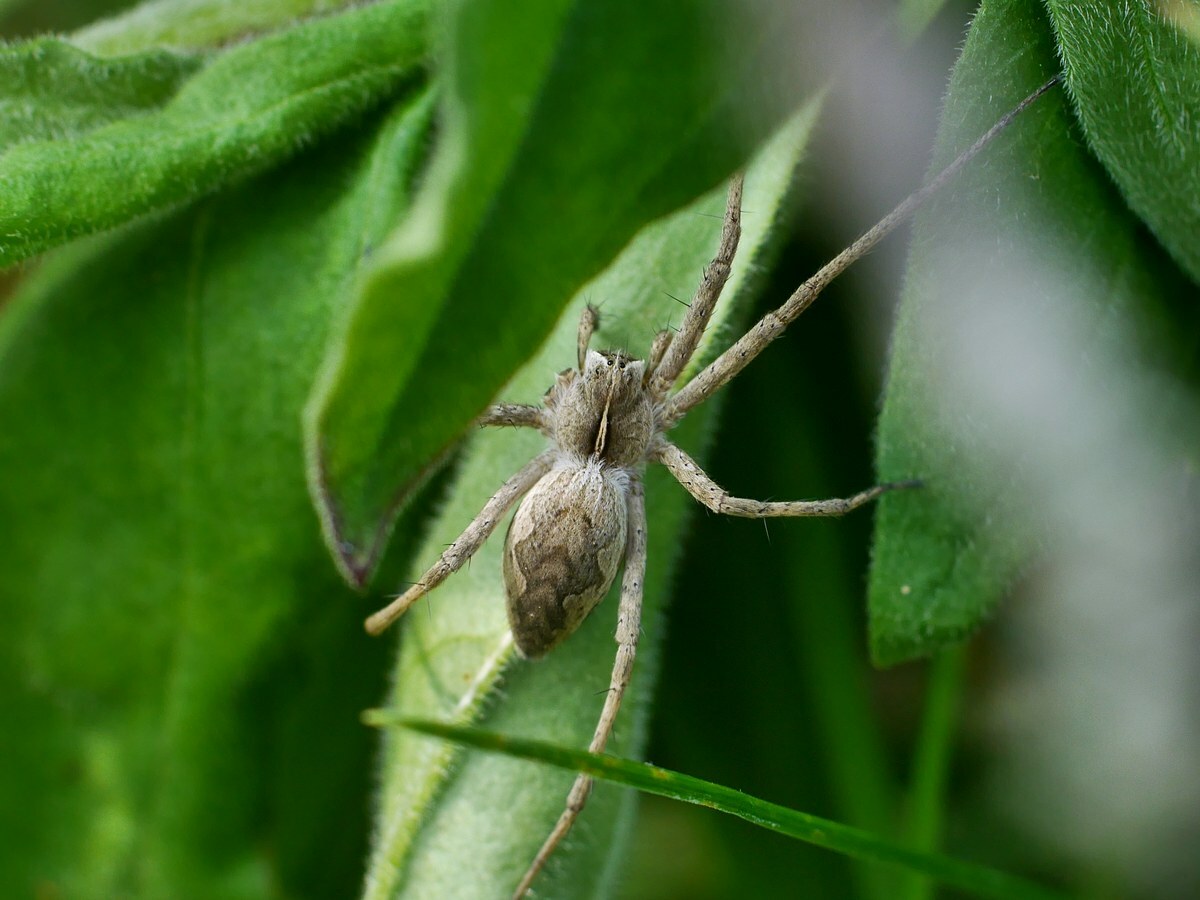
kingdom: Animalia
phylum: Arthropoda
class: Arachnida
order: Araneae
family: Pisauridae
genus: Pisaura
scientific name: Pisaura
